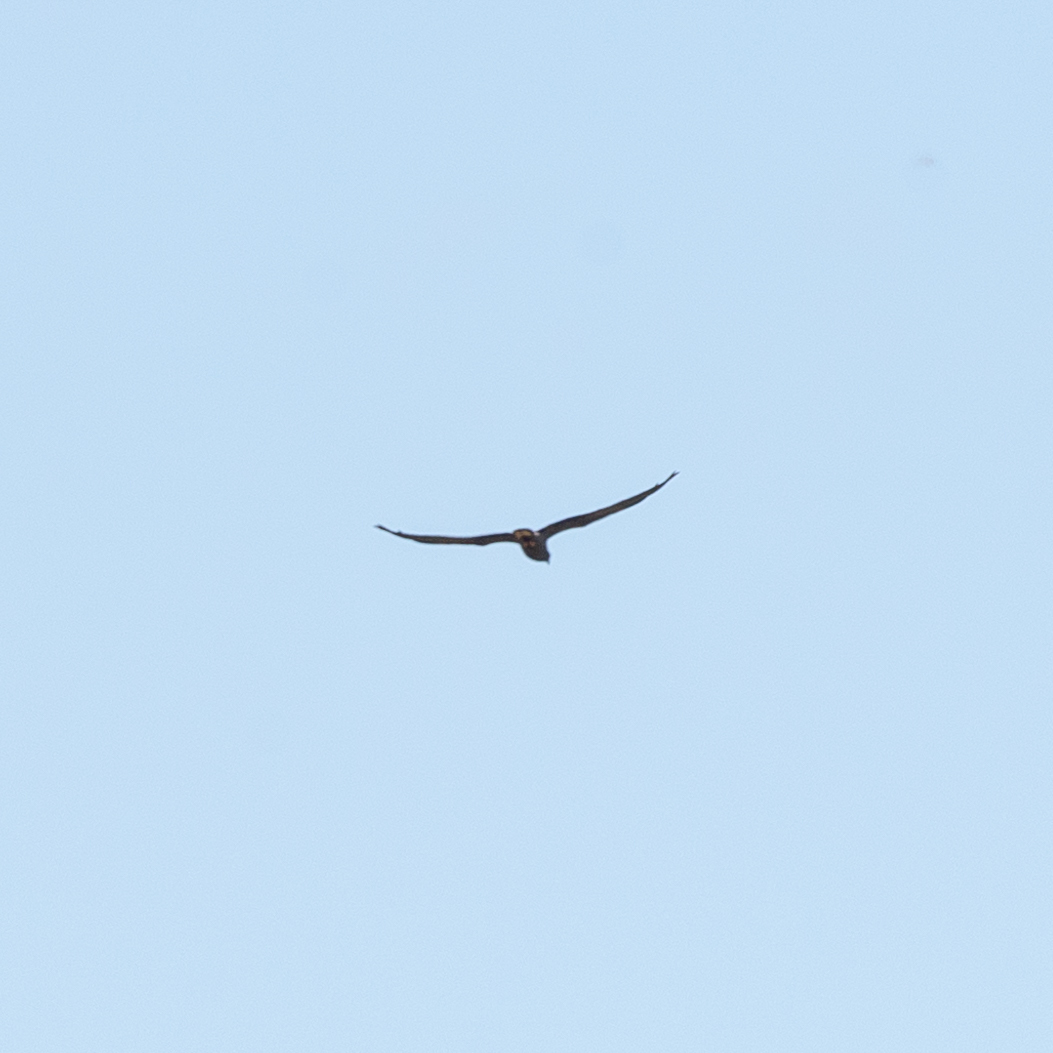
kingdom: Animalia
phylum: Chordata
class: Aves
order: Accipitriformes
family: Accipitridae
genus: Circus
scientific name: Circus pygargus
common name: Montagu's harrier
